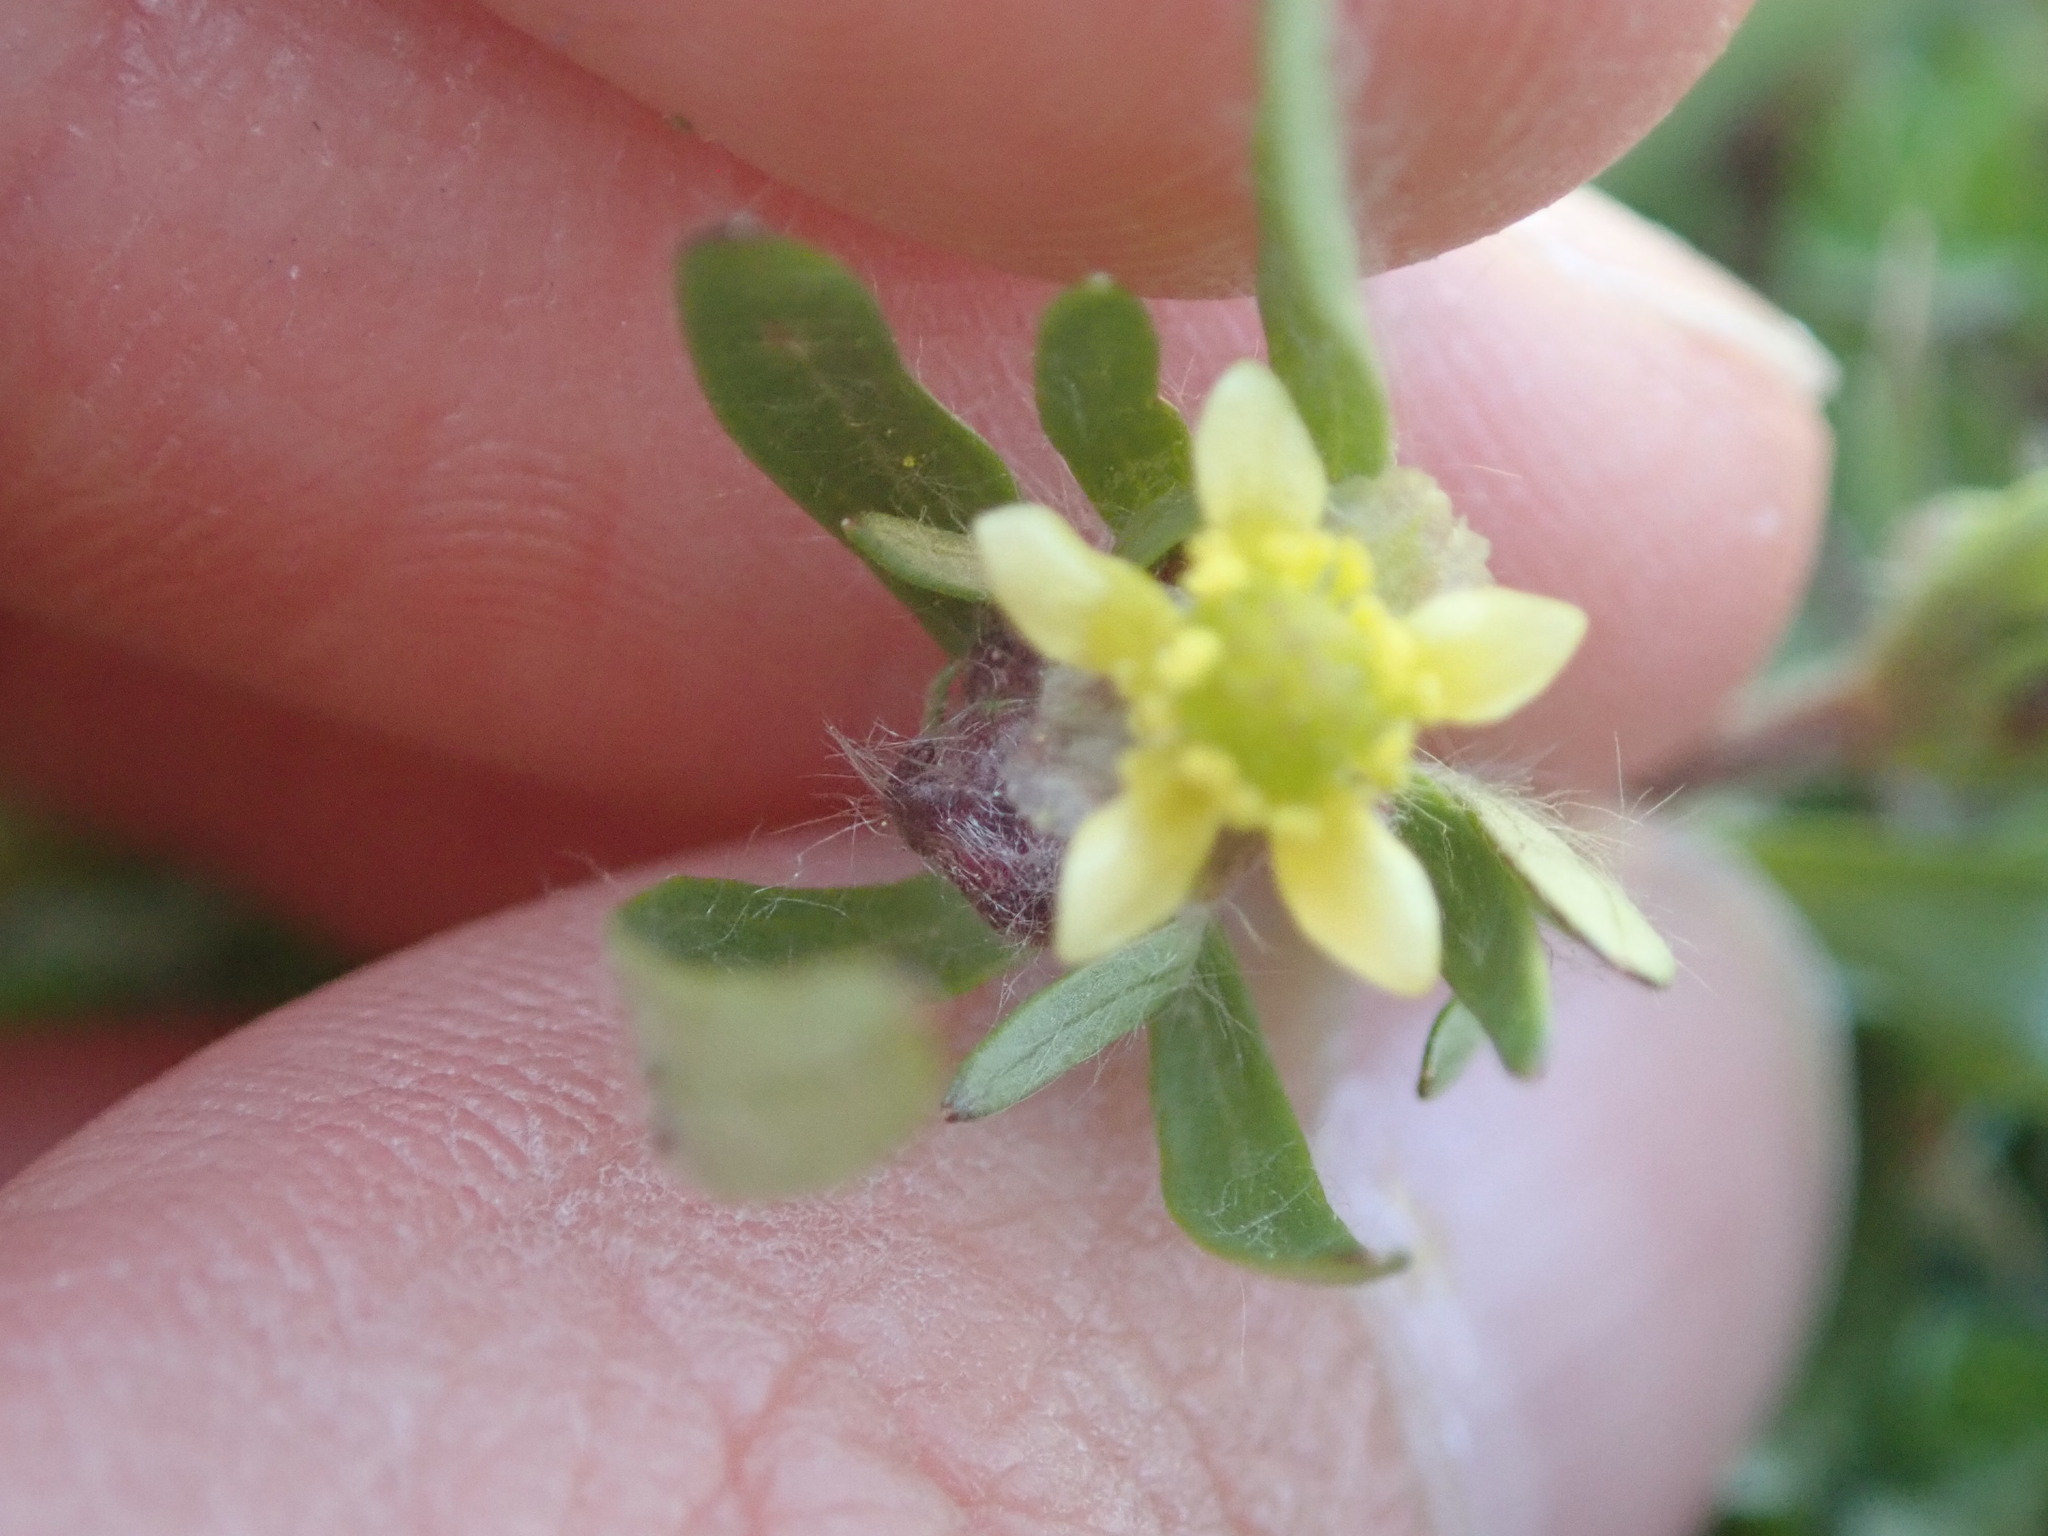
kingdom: Plantae
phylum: Tracheophyta
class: Magnoliopsida
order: Ranunculales
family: Ranunculaceae
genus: Ranunculus
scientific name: Ranunculus abortivus
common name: Early wood buttercup
